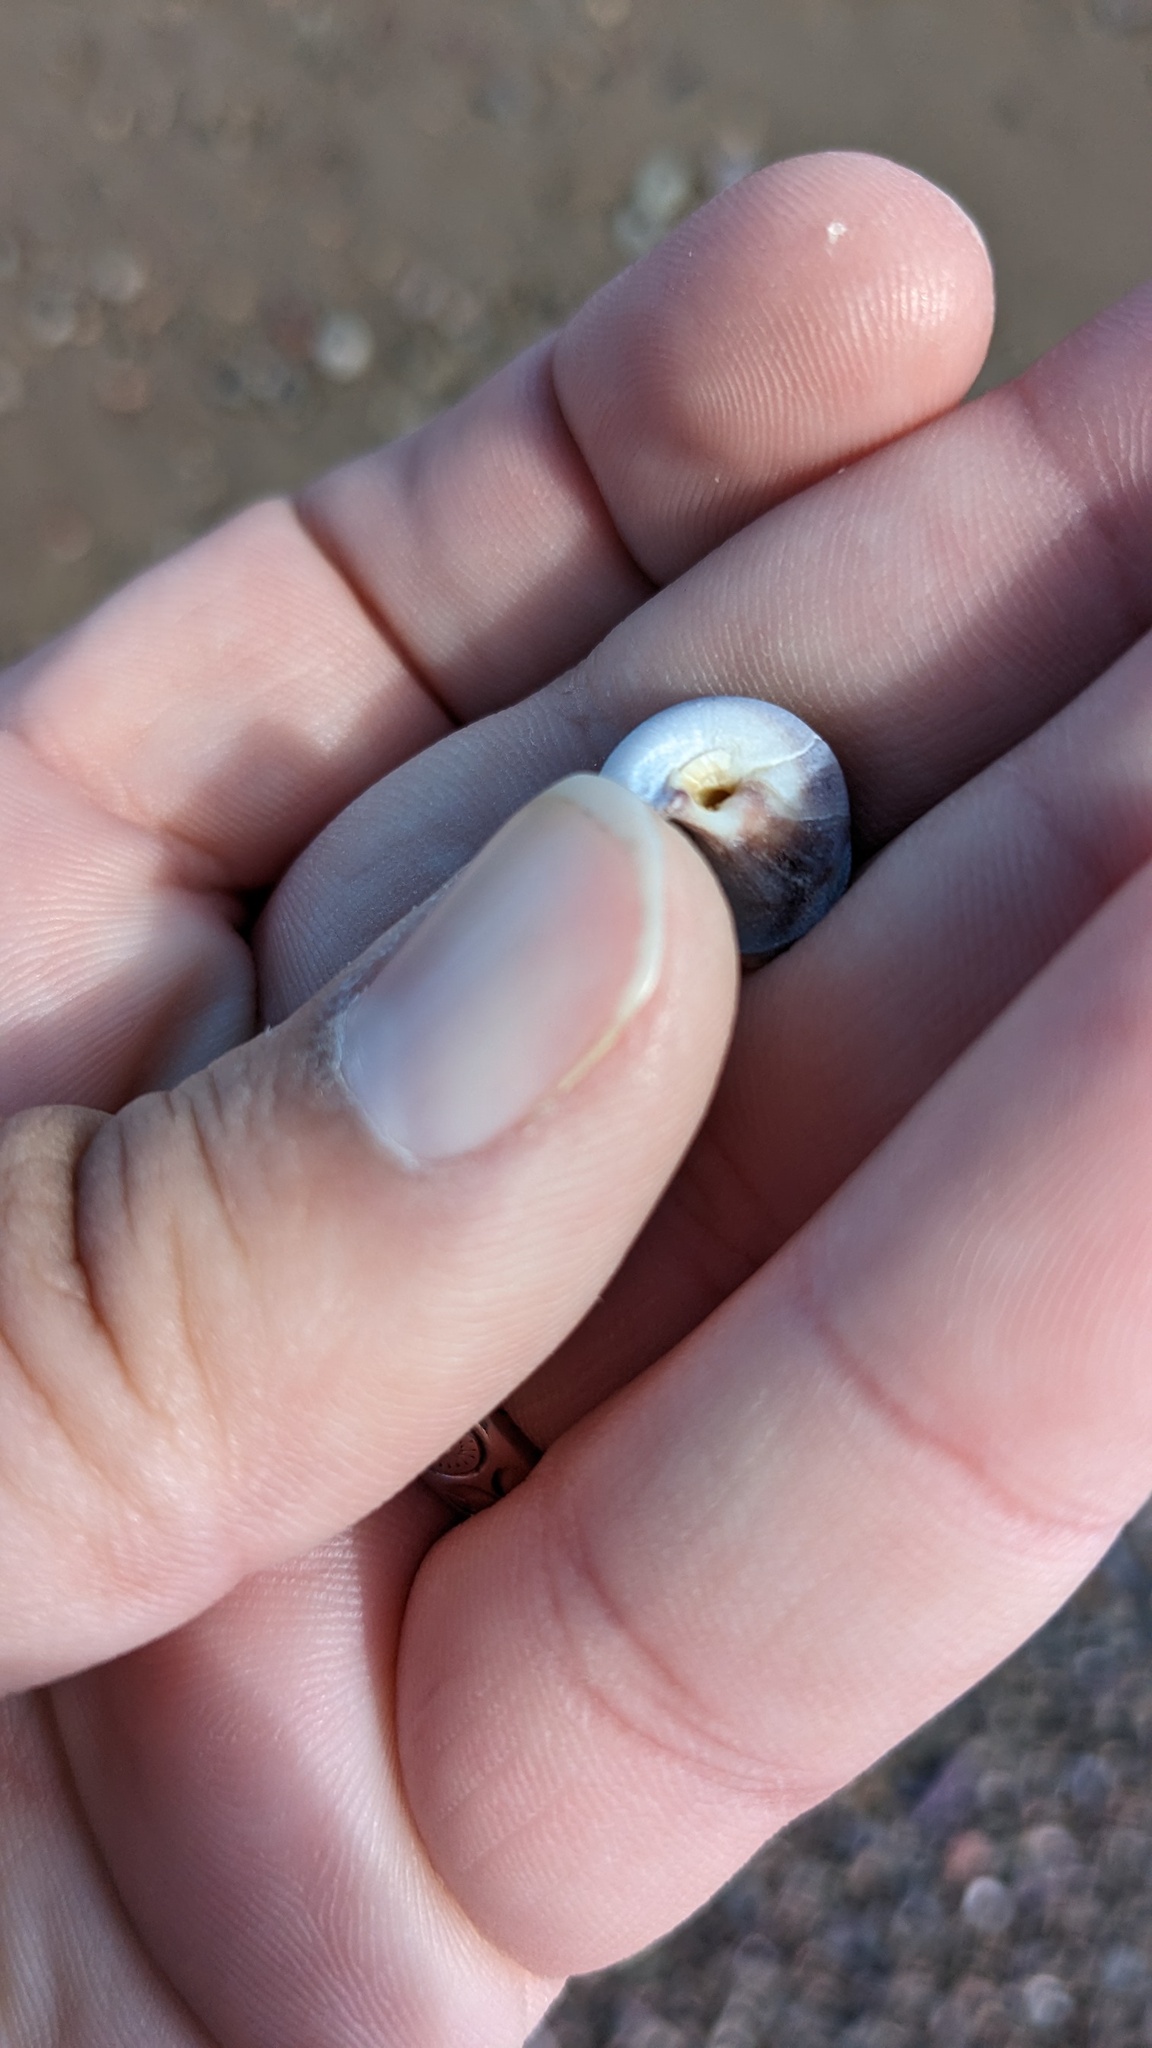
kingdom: Animalia
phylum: Mollusca
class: Gastropoda
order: Littorinimorpha
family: Naticidae
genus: Euspira
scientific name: Euspira heros
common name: Common northern moonsnail
